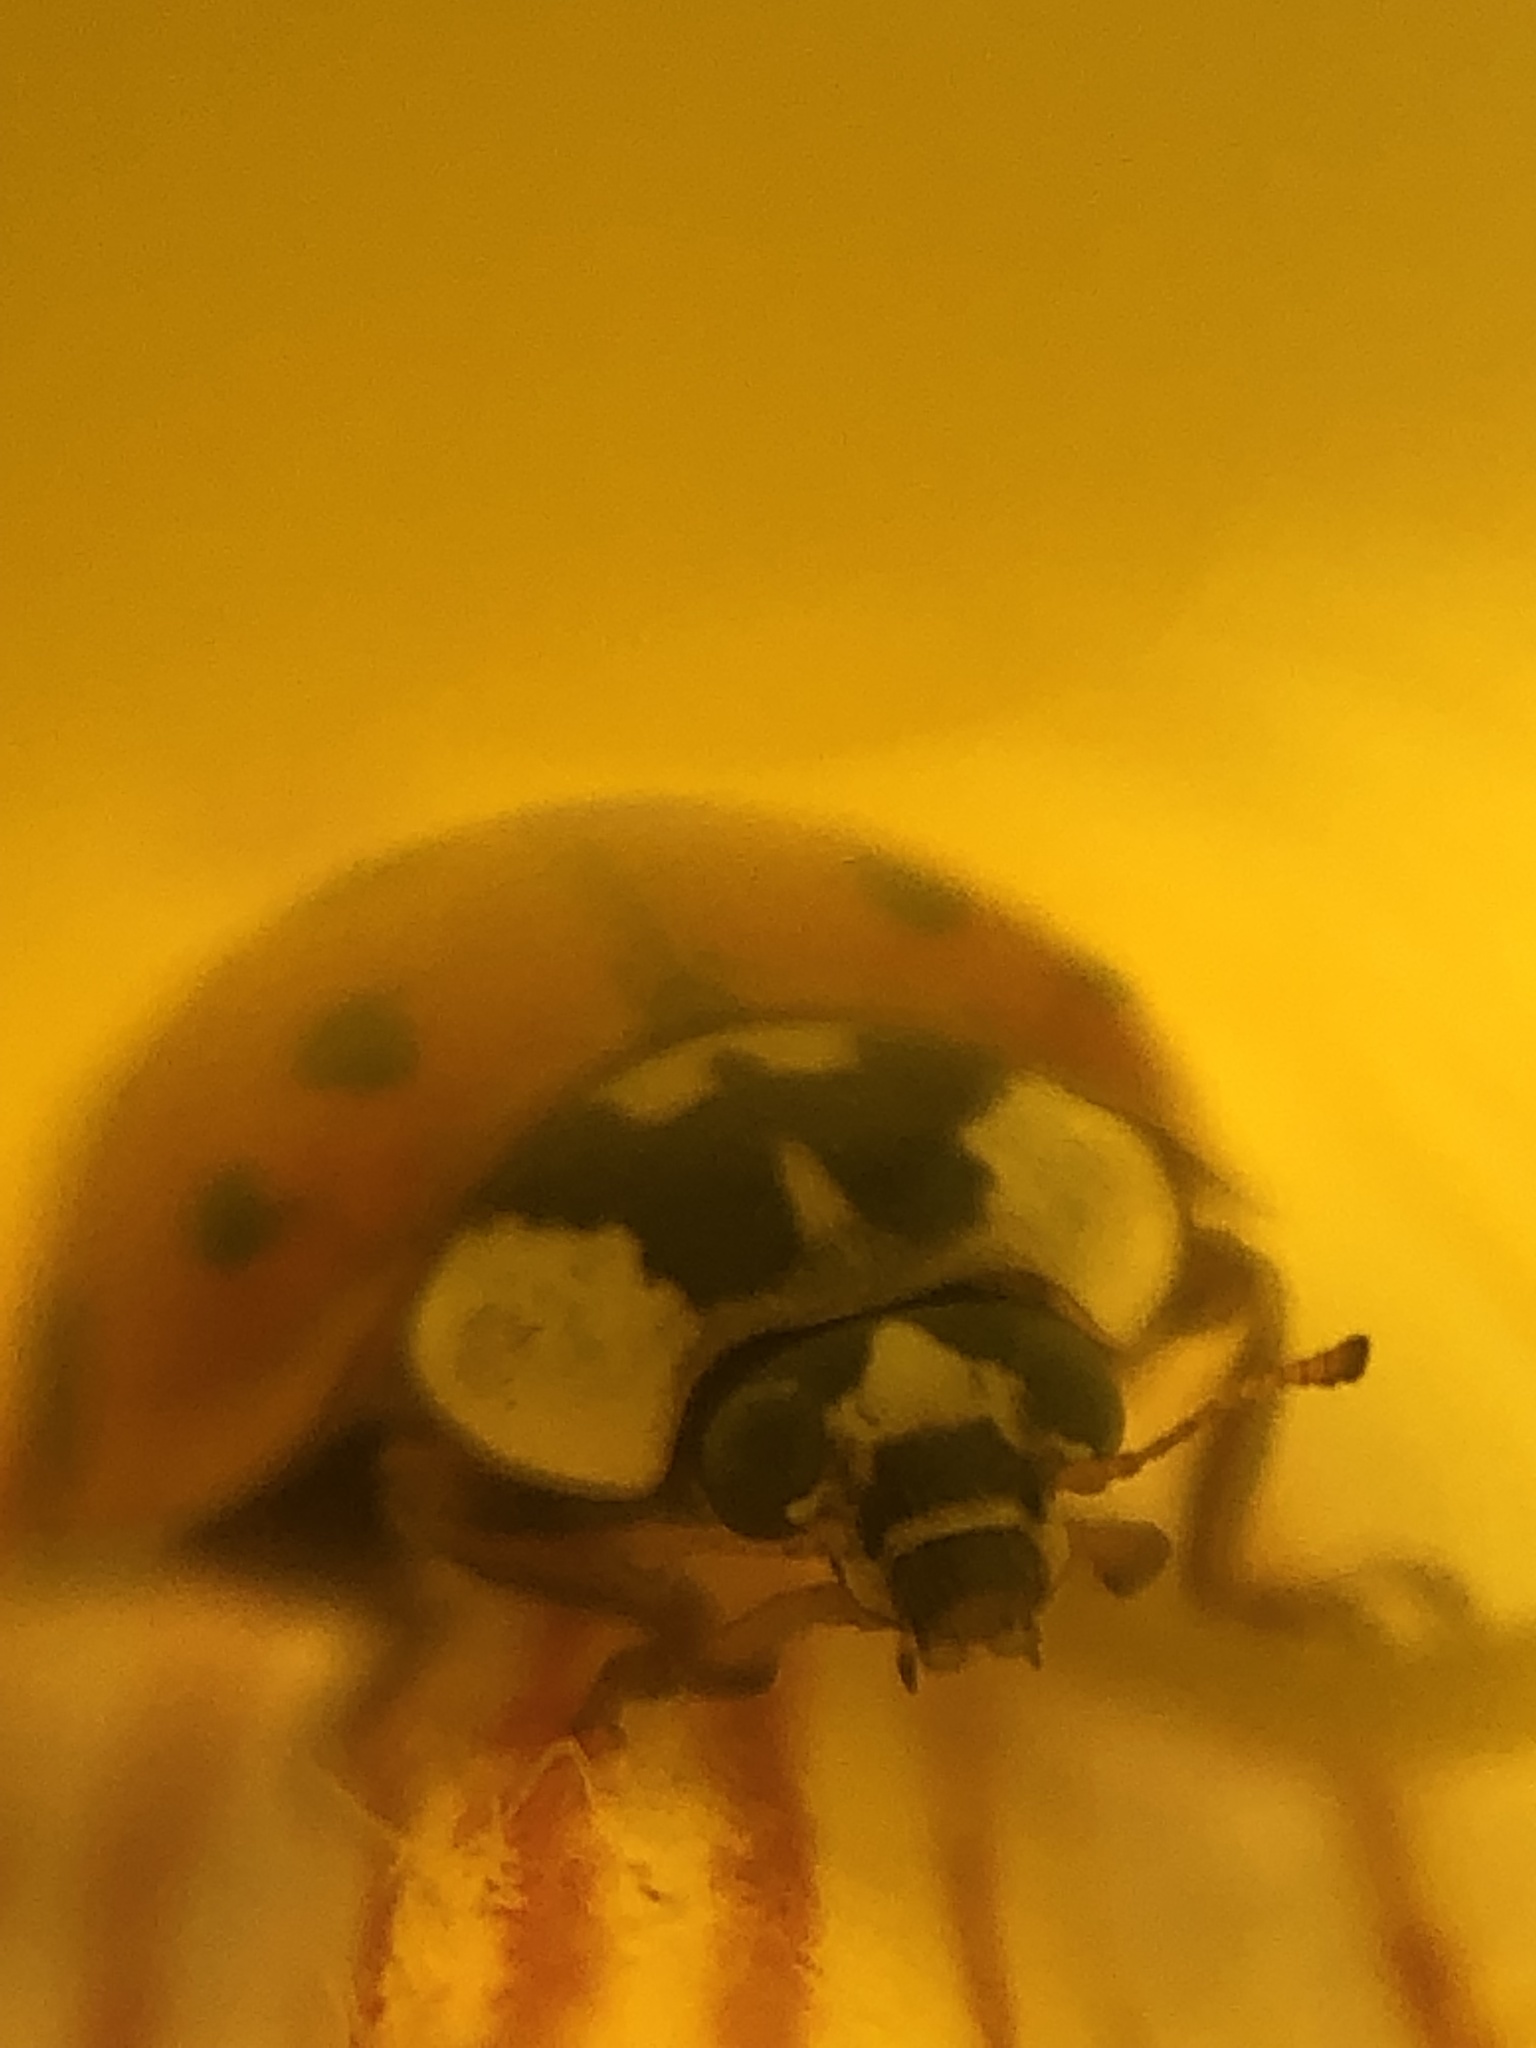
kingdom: Animalia
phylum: Arthropoda
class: Insecta
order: Coleoptera
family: Coccinellidae
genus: Harmonia
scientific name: Harmonia axyridis
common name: Harlequin ladybird
